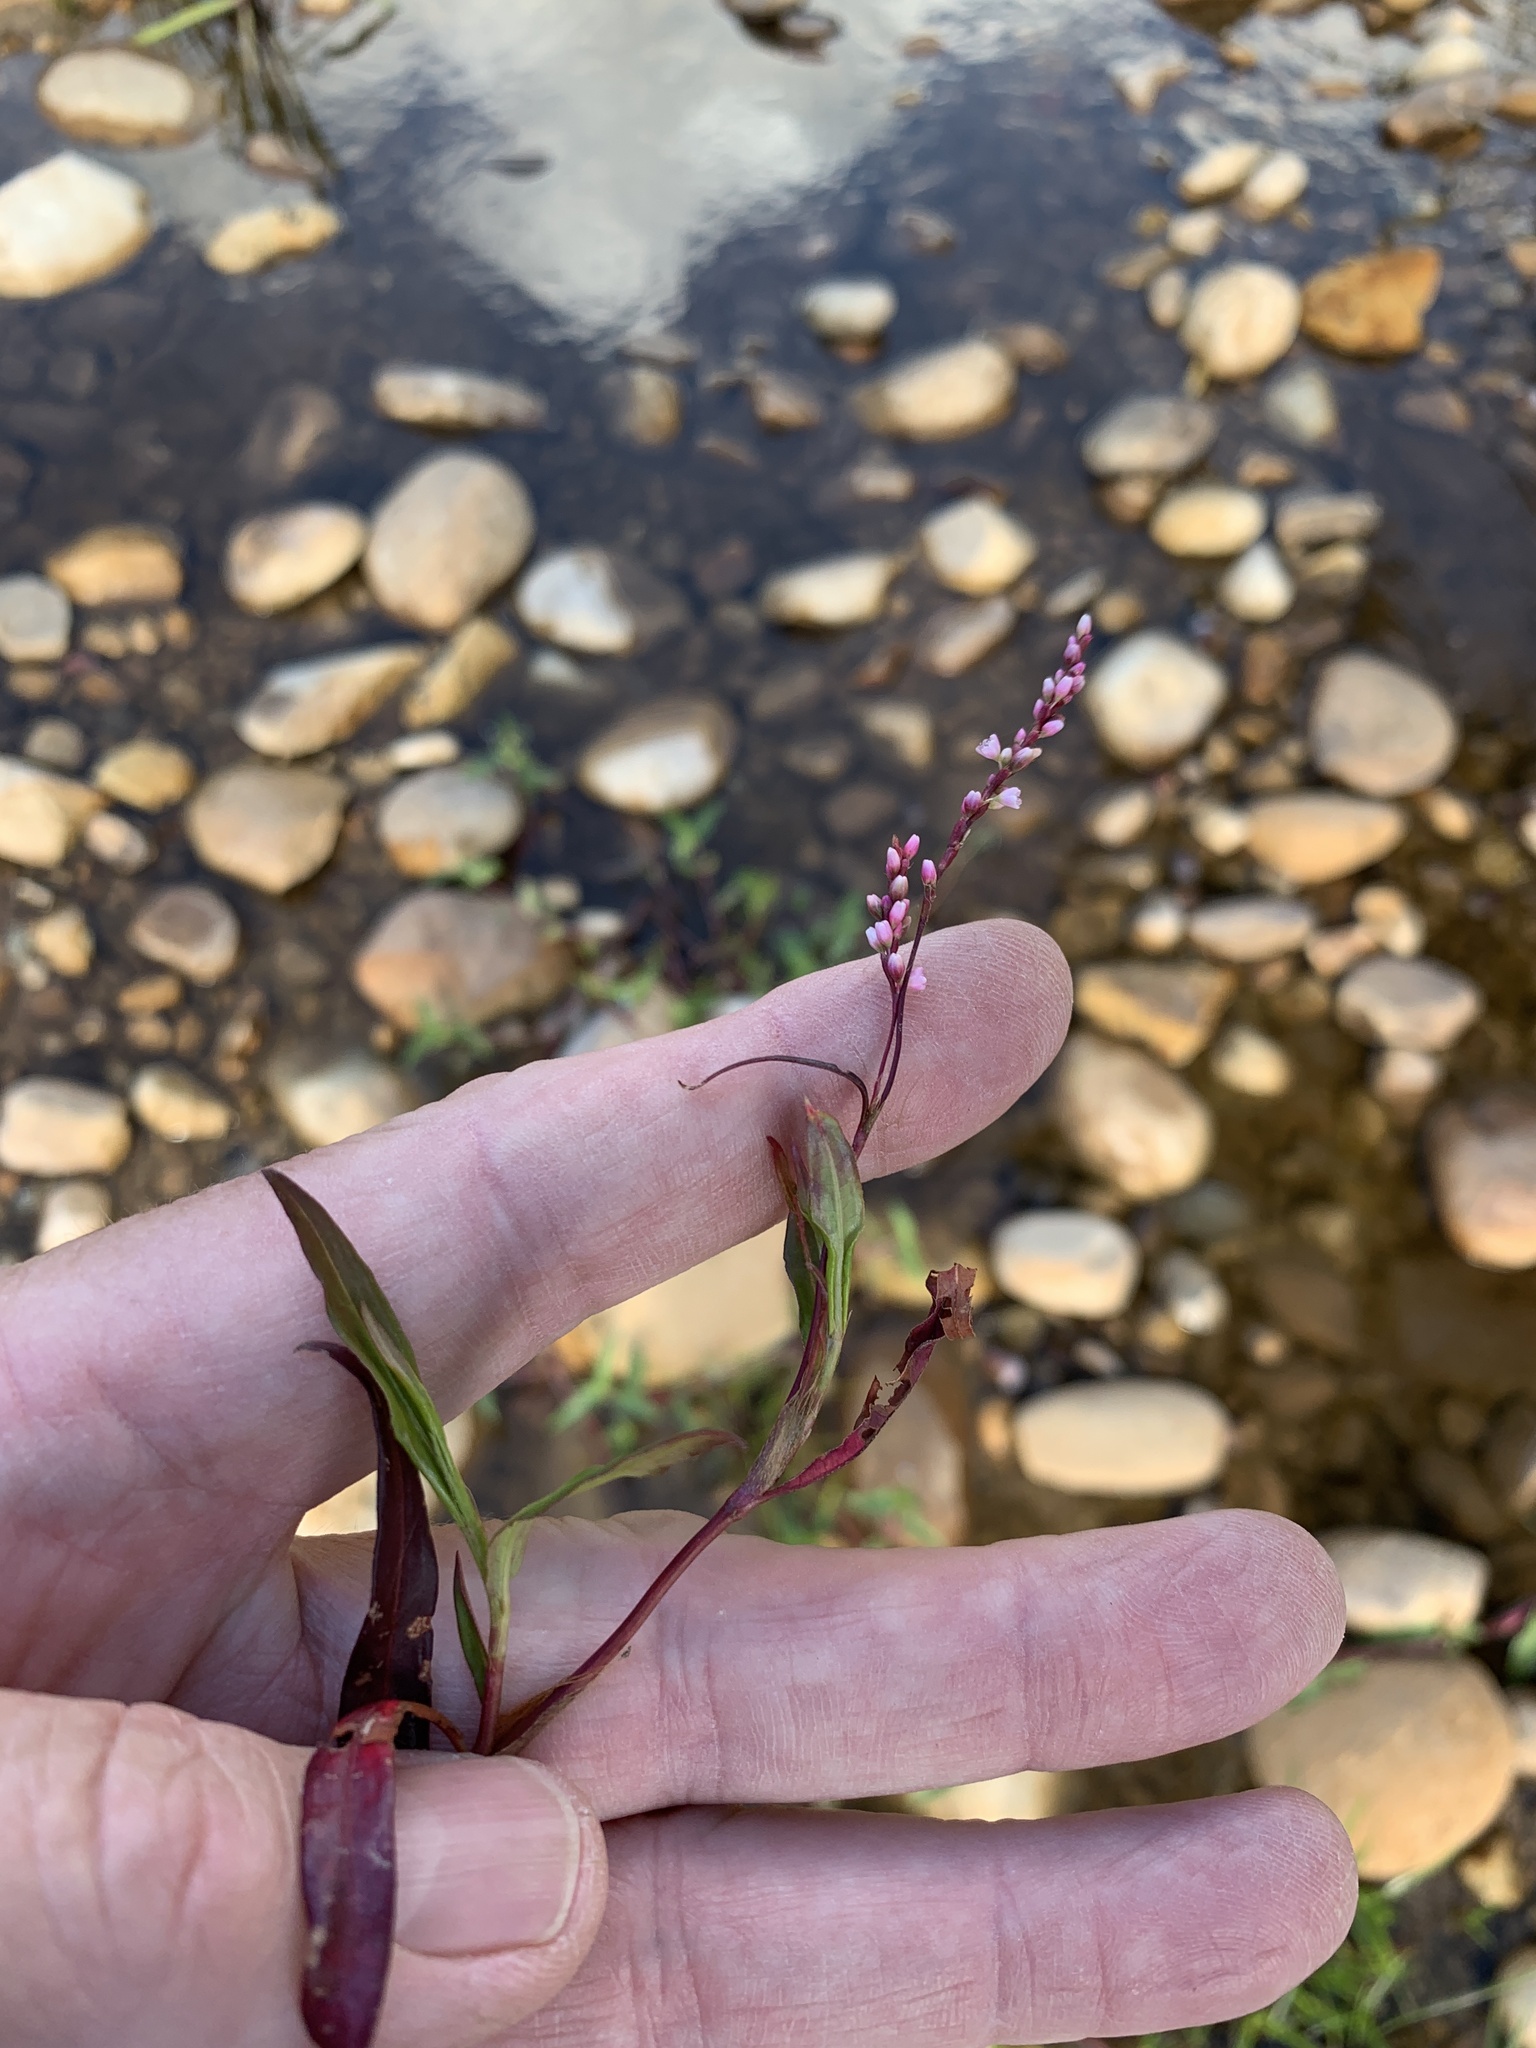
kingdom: Plantae
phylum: Tracheophyta
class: Magnoliopsida
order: Caryophyllales
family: Polygonaceae
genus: Persicaria
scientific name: Persicaria decipiens
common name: Willow-weed
